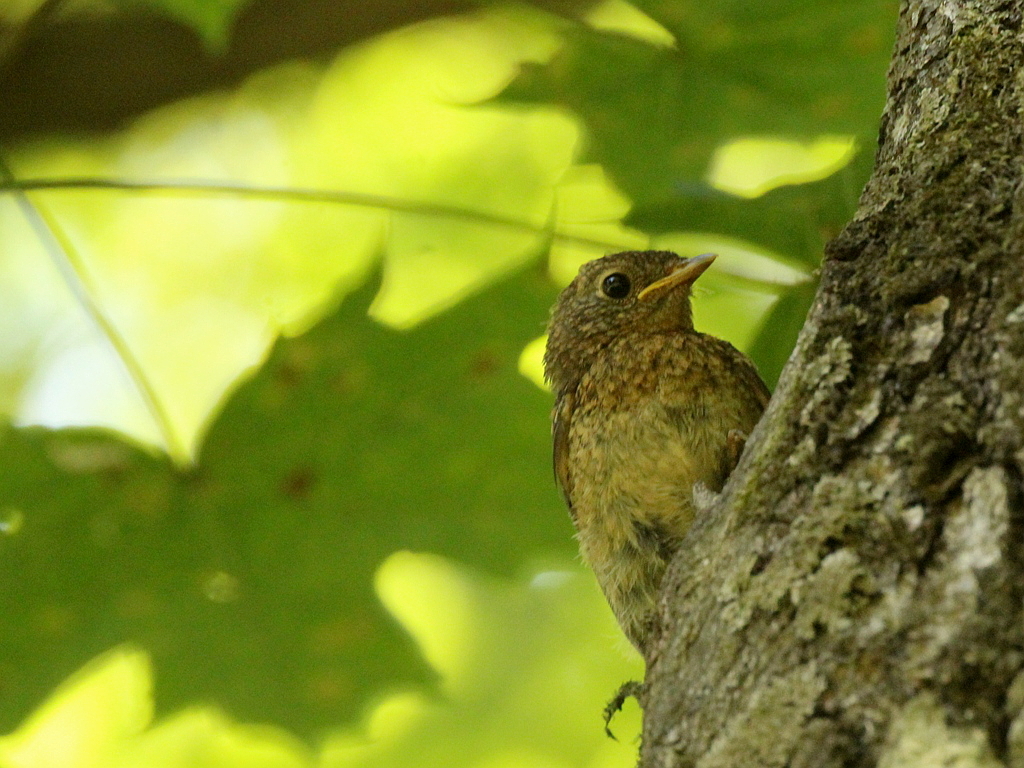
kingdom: Animalia
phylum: Chordata
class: Aves
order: Passeriformes
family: Muscicapidae
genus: Phoenicurus
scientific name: Phoenicurus phoenicurus
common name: Common redstart
